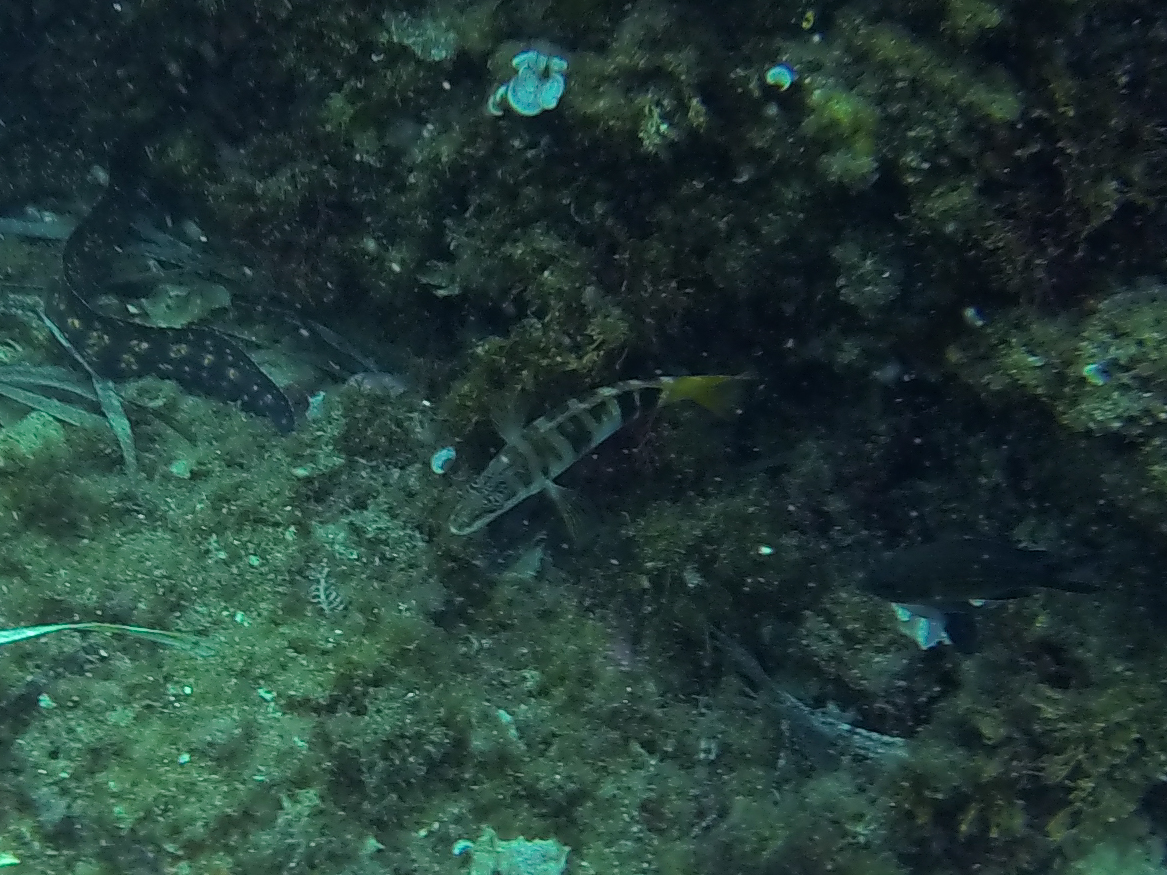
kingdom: Animalia
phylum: Chordata
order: Perciformes
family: Serranidae
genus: Serranus
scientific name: Serranus scriba
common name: Painted comber
